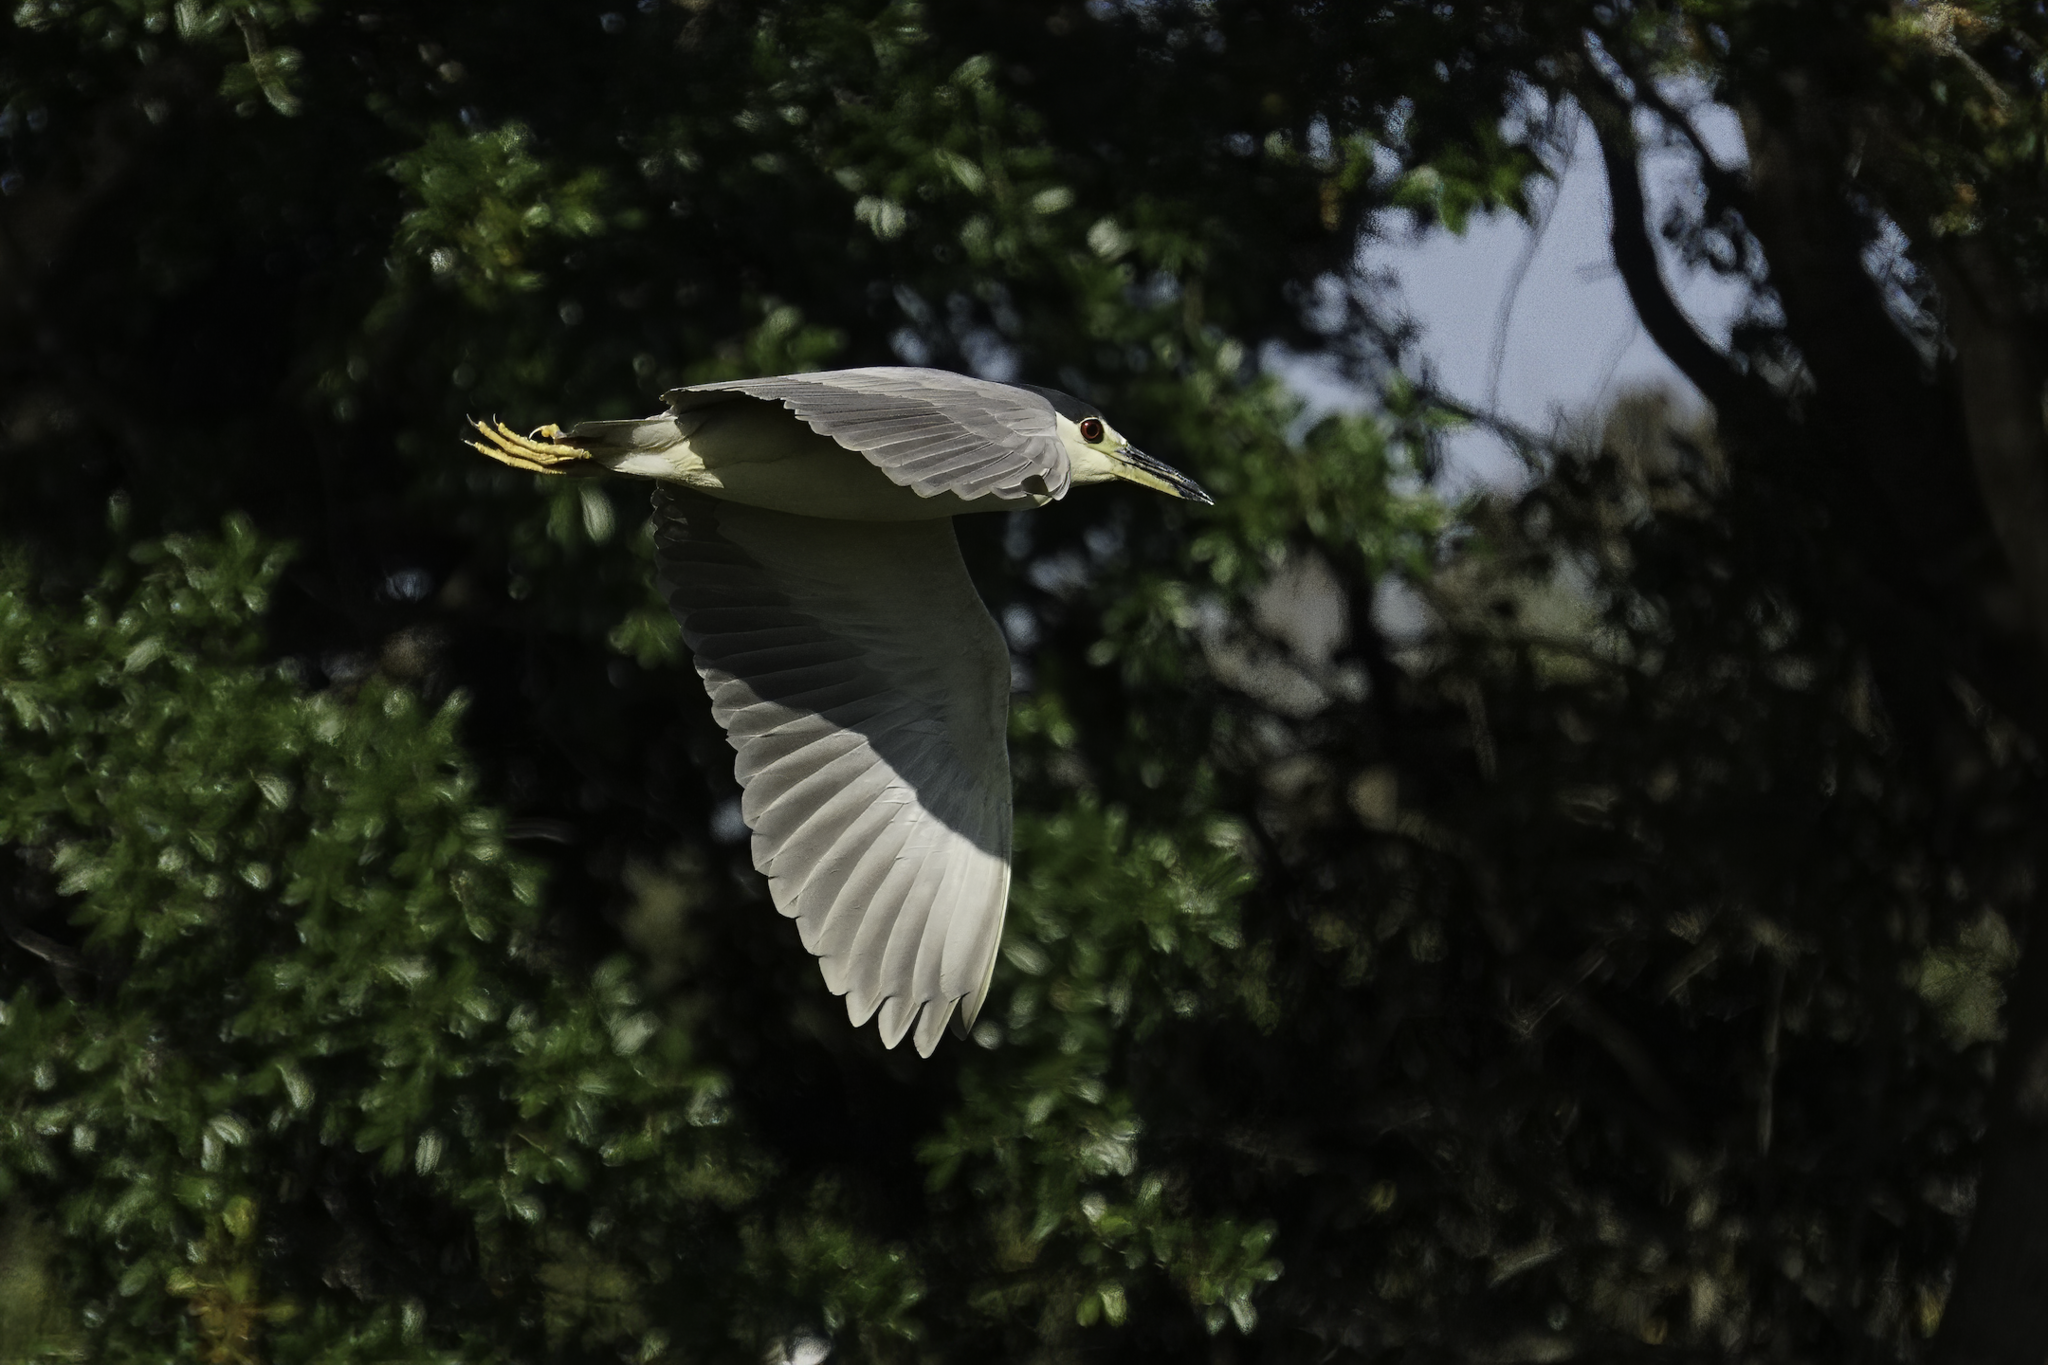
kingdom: Animalia
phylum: Chordata
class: Aves
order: Pelecaniformes
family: Ardeidae
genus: Nycticorax
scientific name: Nycticorax nycticorax
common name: Black-crowned night heron
